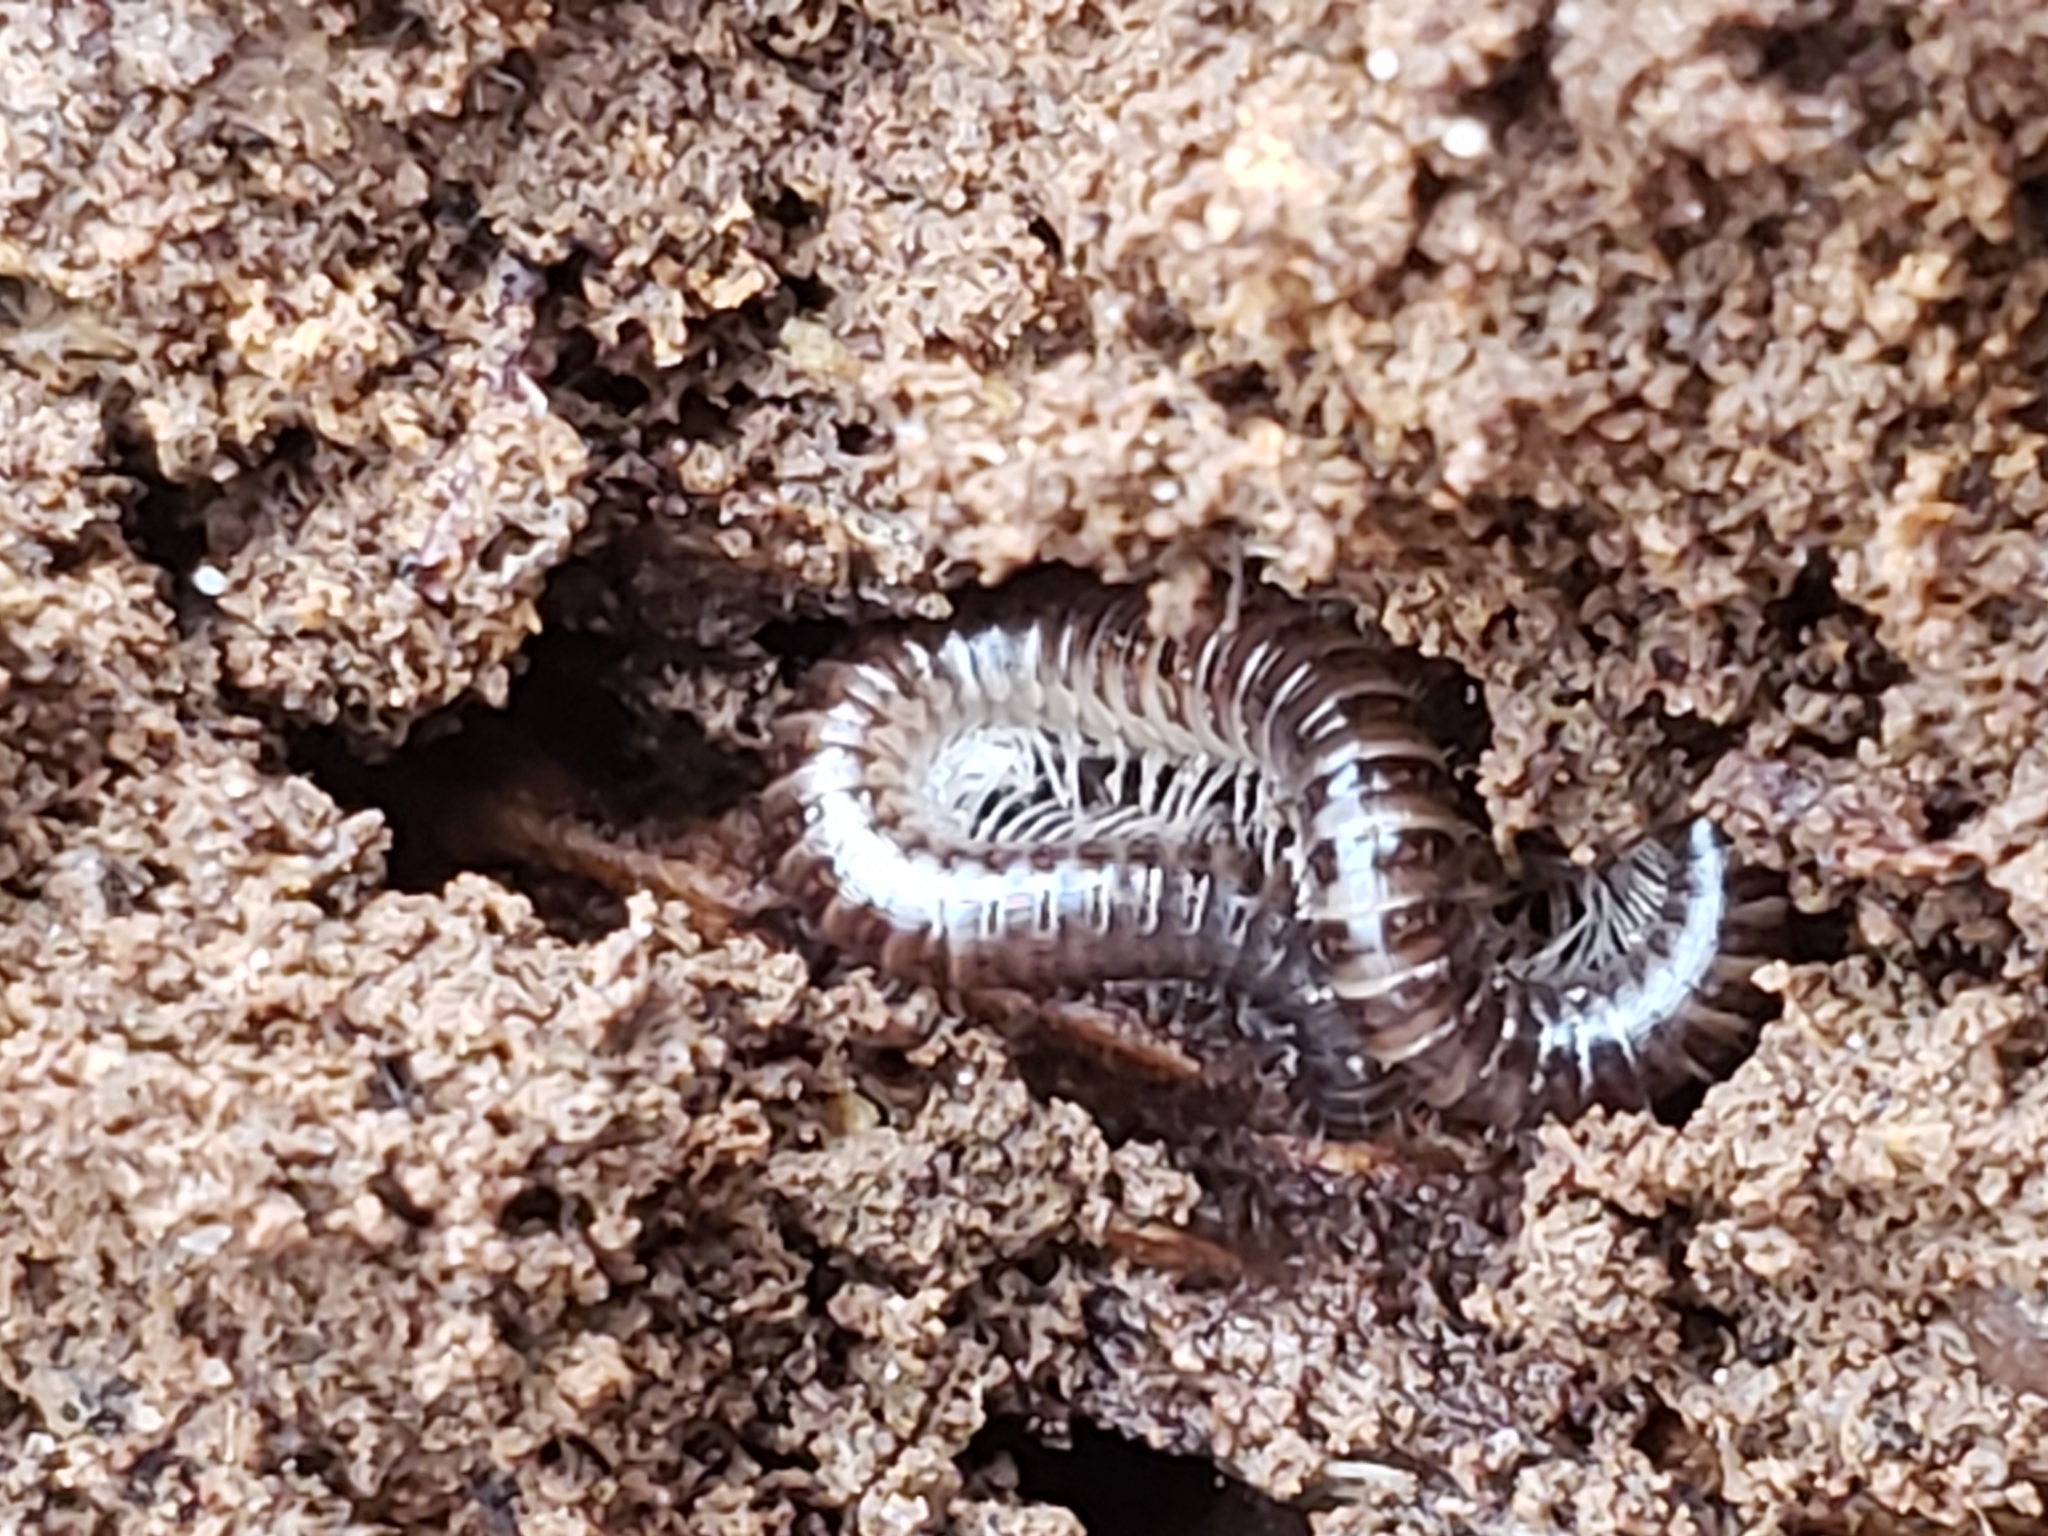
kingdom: Animalia
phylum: Arthropoda
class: Diplopoda
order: Julida
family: Julidae
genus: Ophyiulus
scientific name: Ophyiulus pilosus
